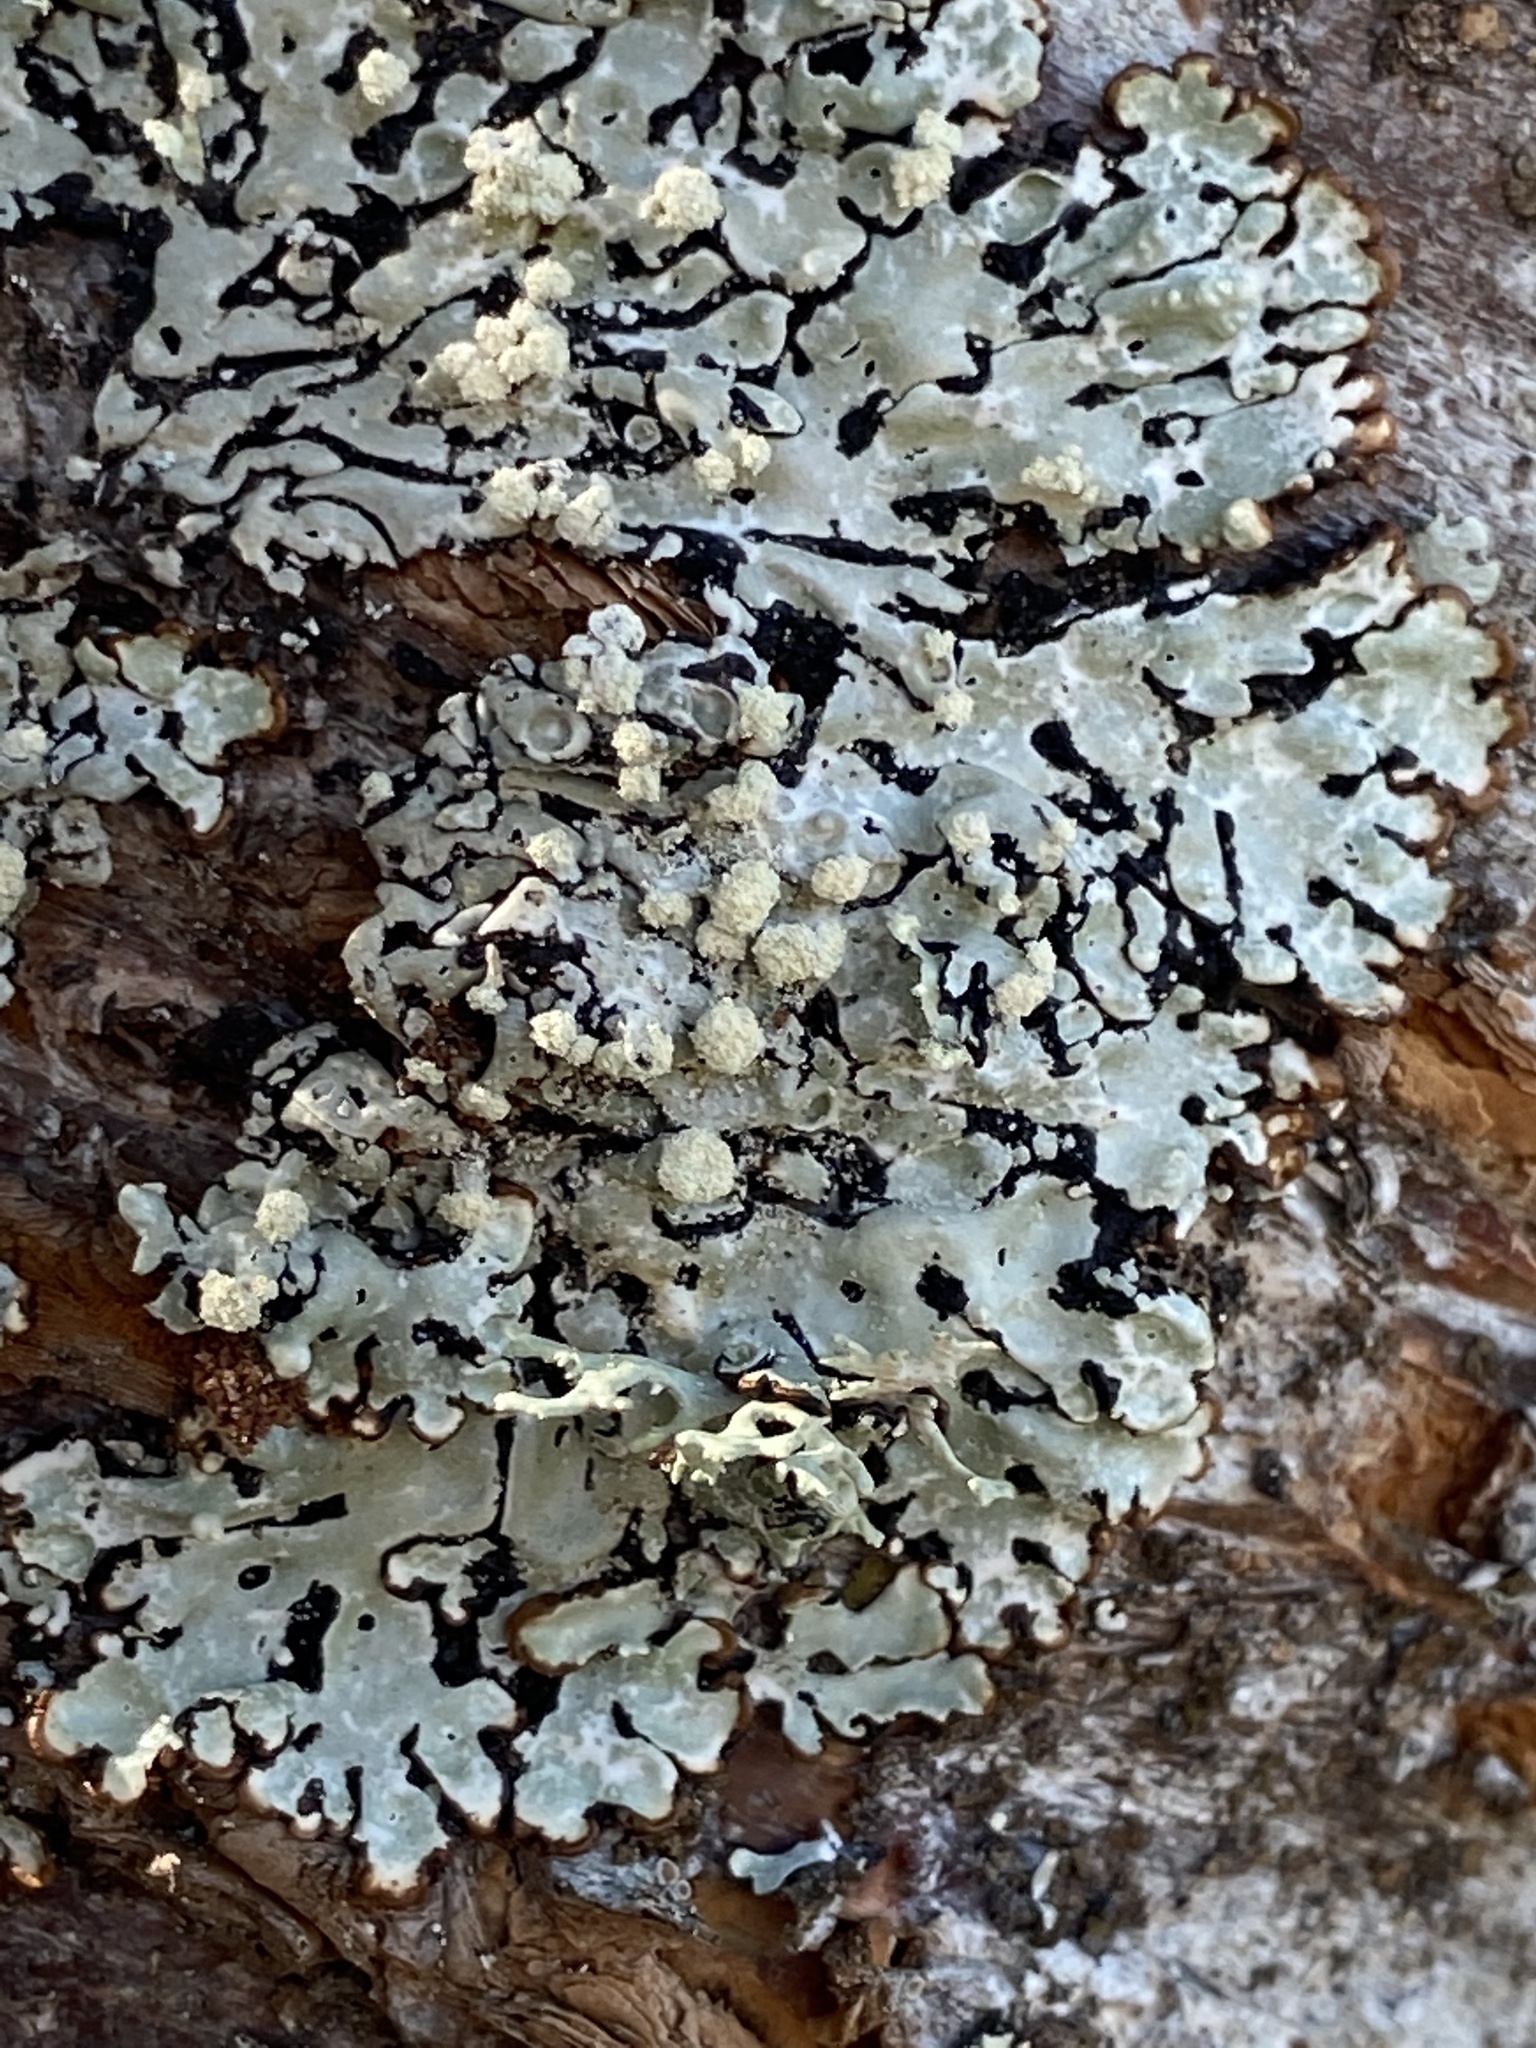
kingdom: Fungi
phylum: Ascomycota
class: Lecanoromycetes
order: Lecanorales
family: Parmeliaceae
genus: Menegazzia
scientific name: Menegazzia terebrata
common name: Magic treeflute lichen
